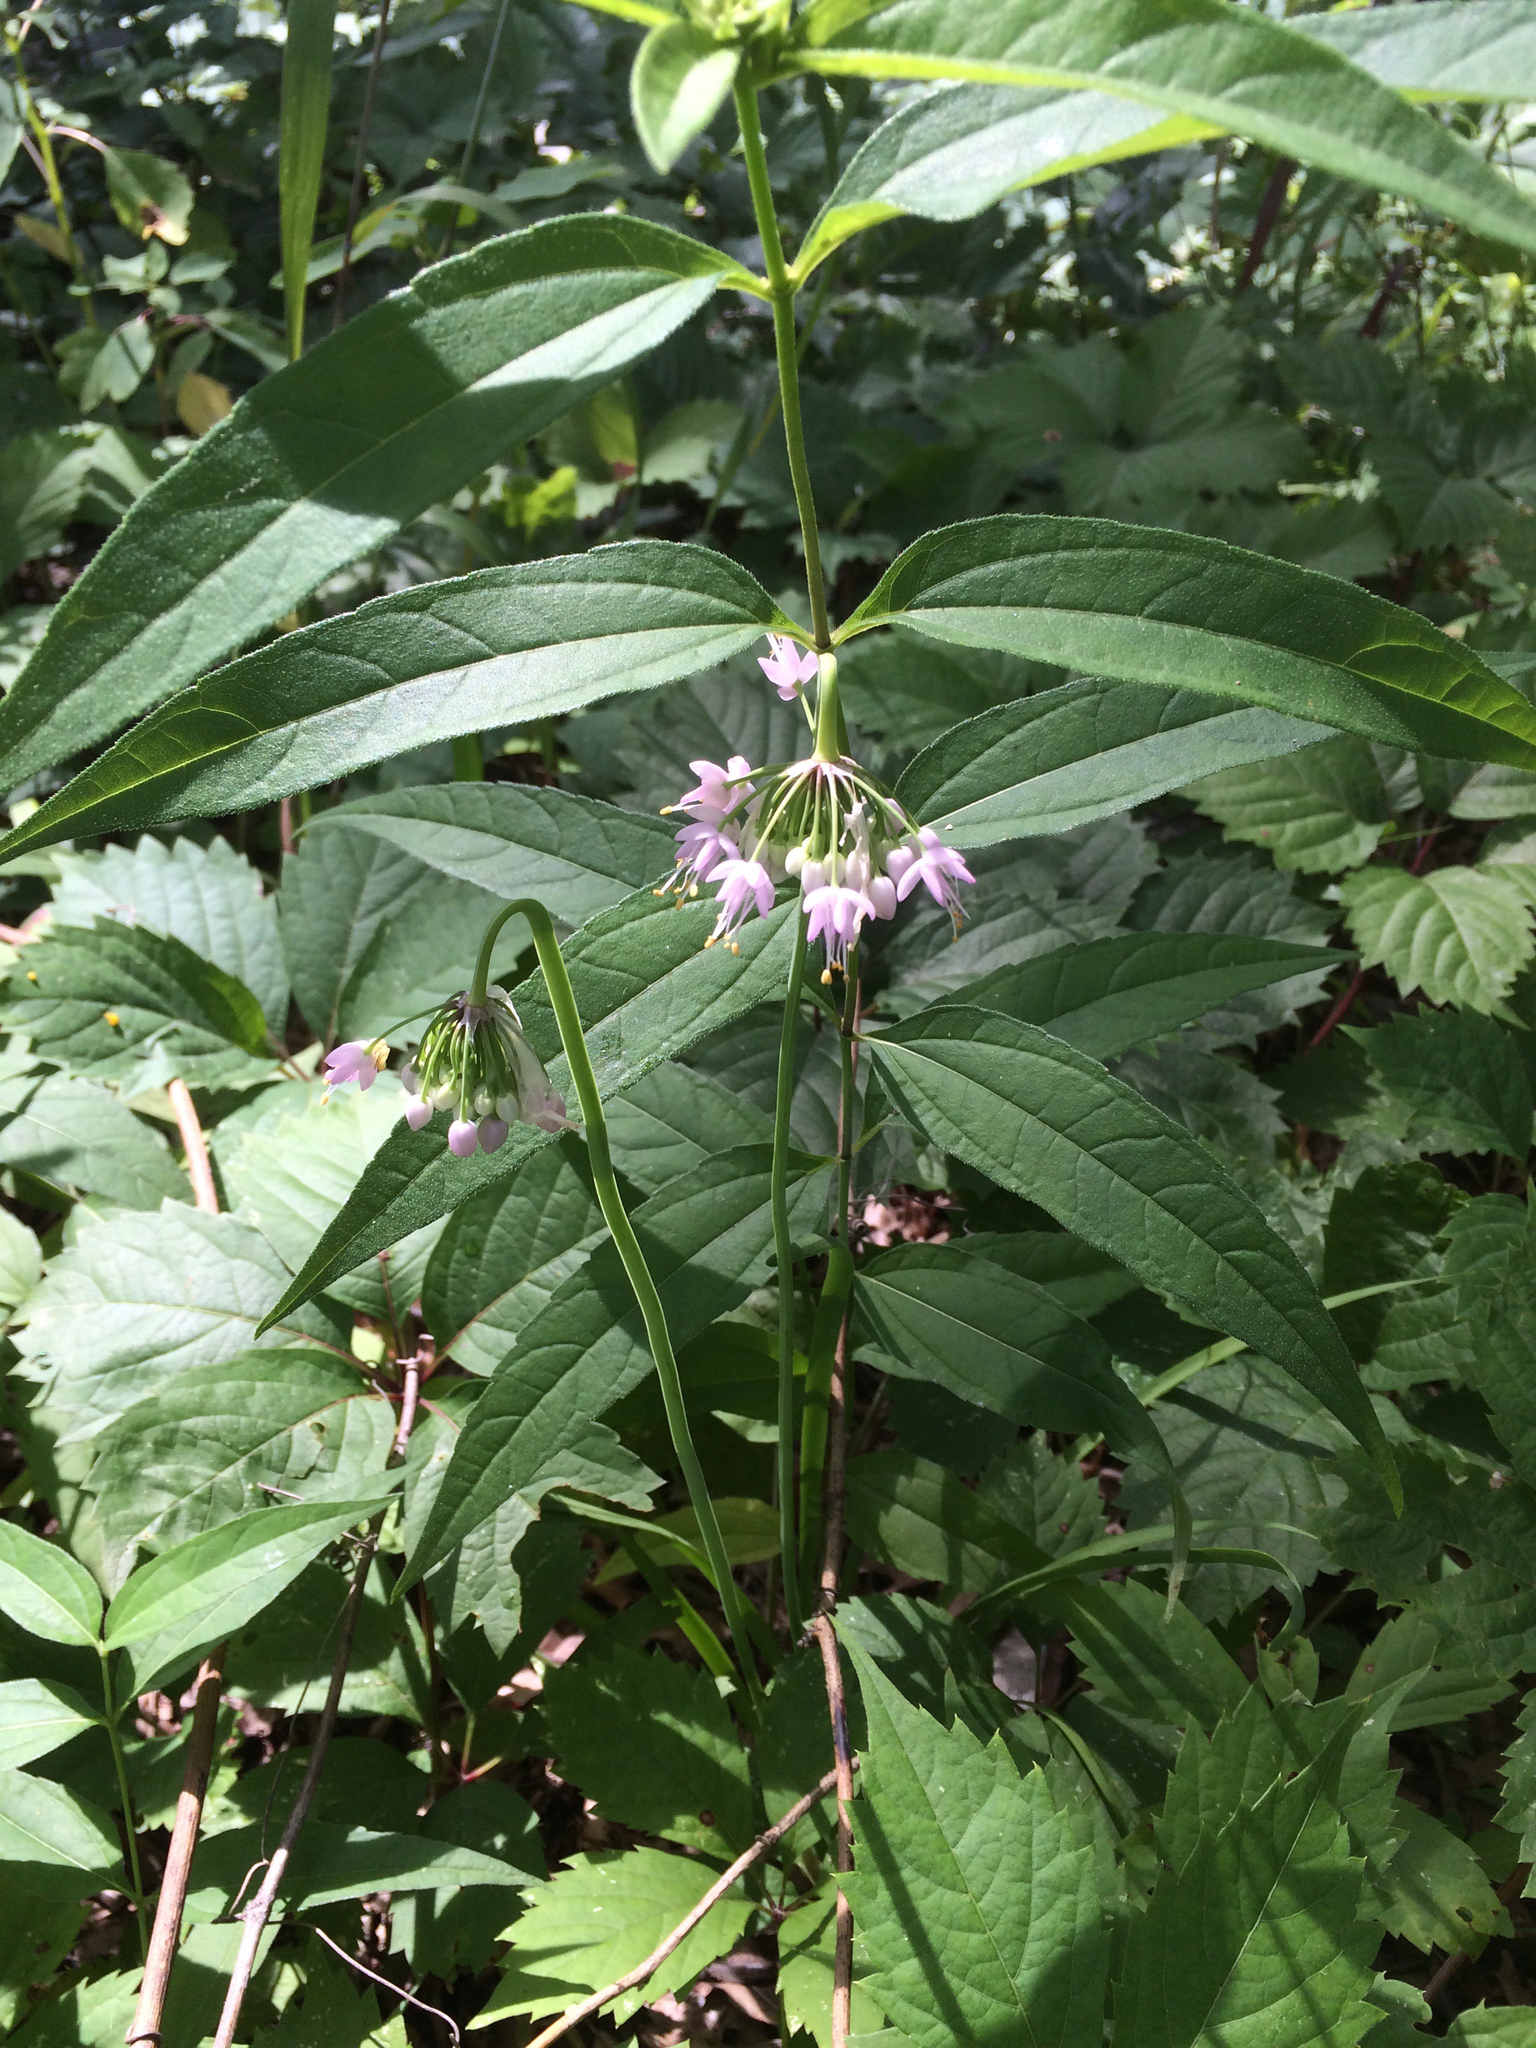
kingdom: Plantae
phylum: Tracheophyta
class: Liliopsida
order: Asparagales
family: Amaryllidaceae
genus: Allium
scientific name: Allium cernuum
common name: Nodding onion
